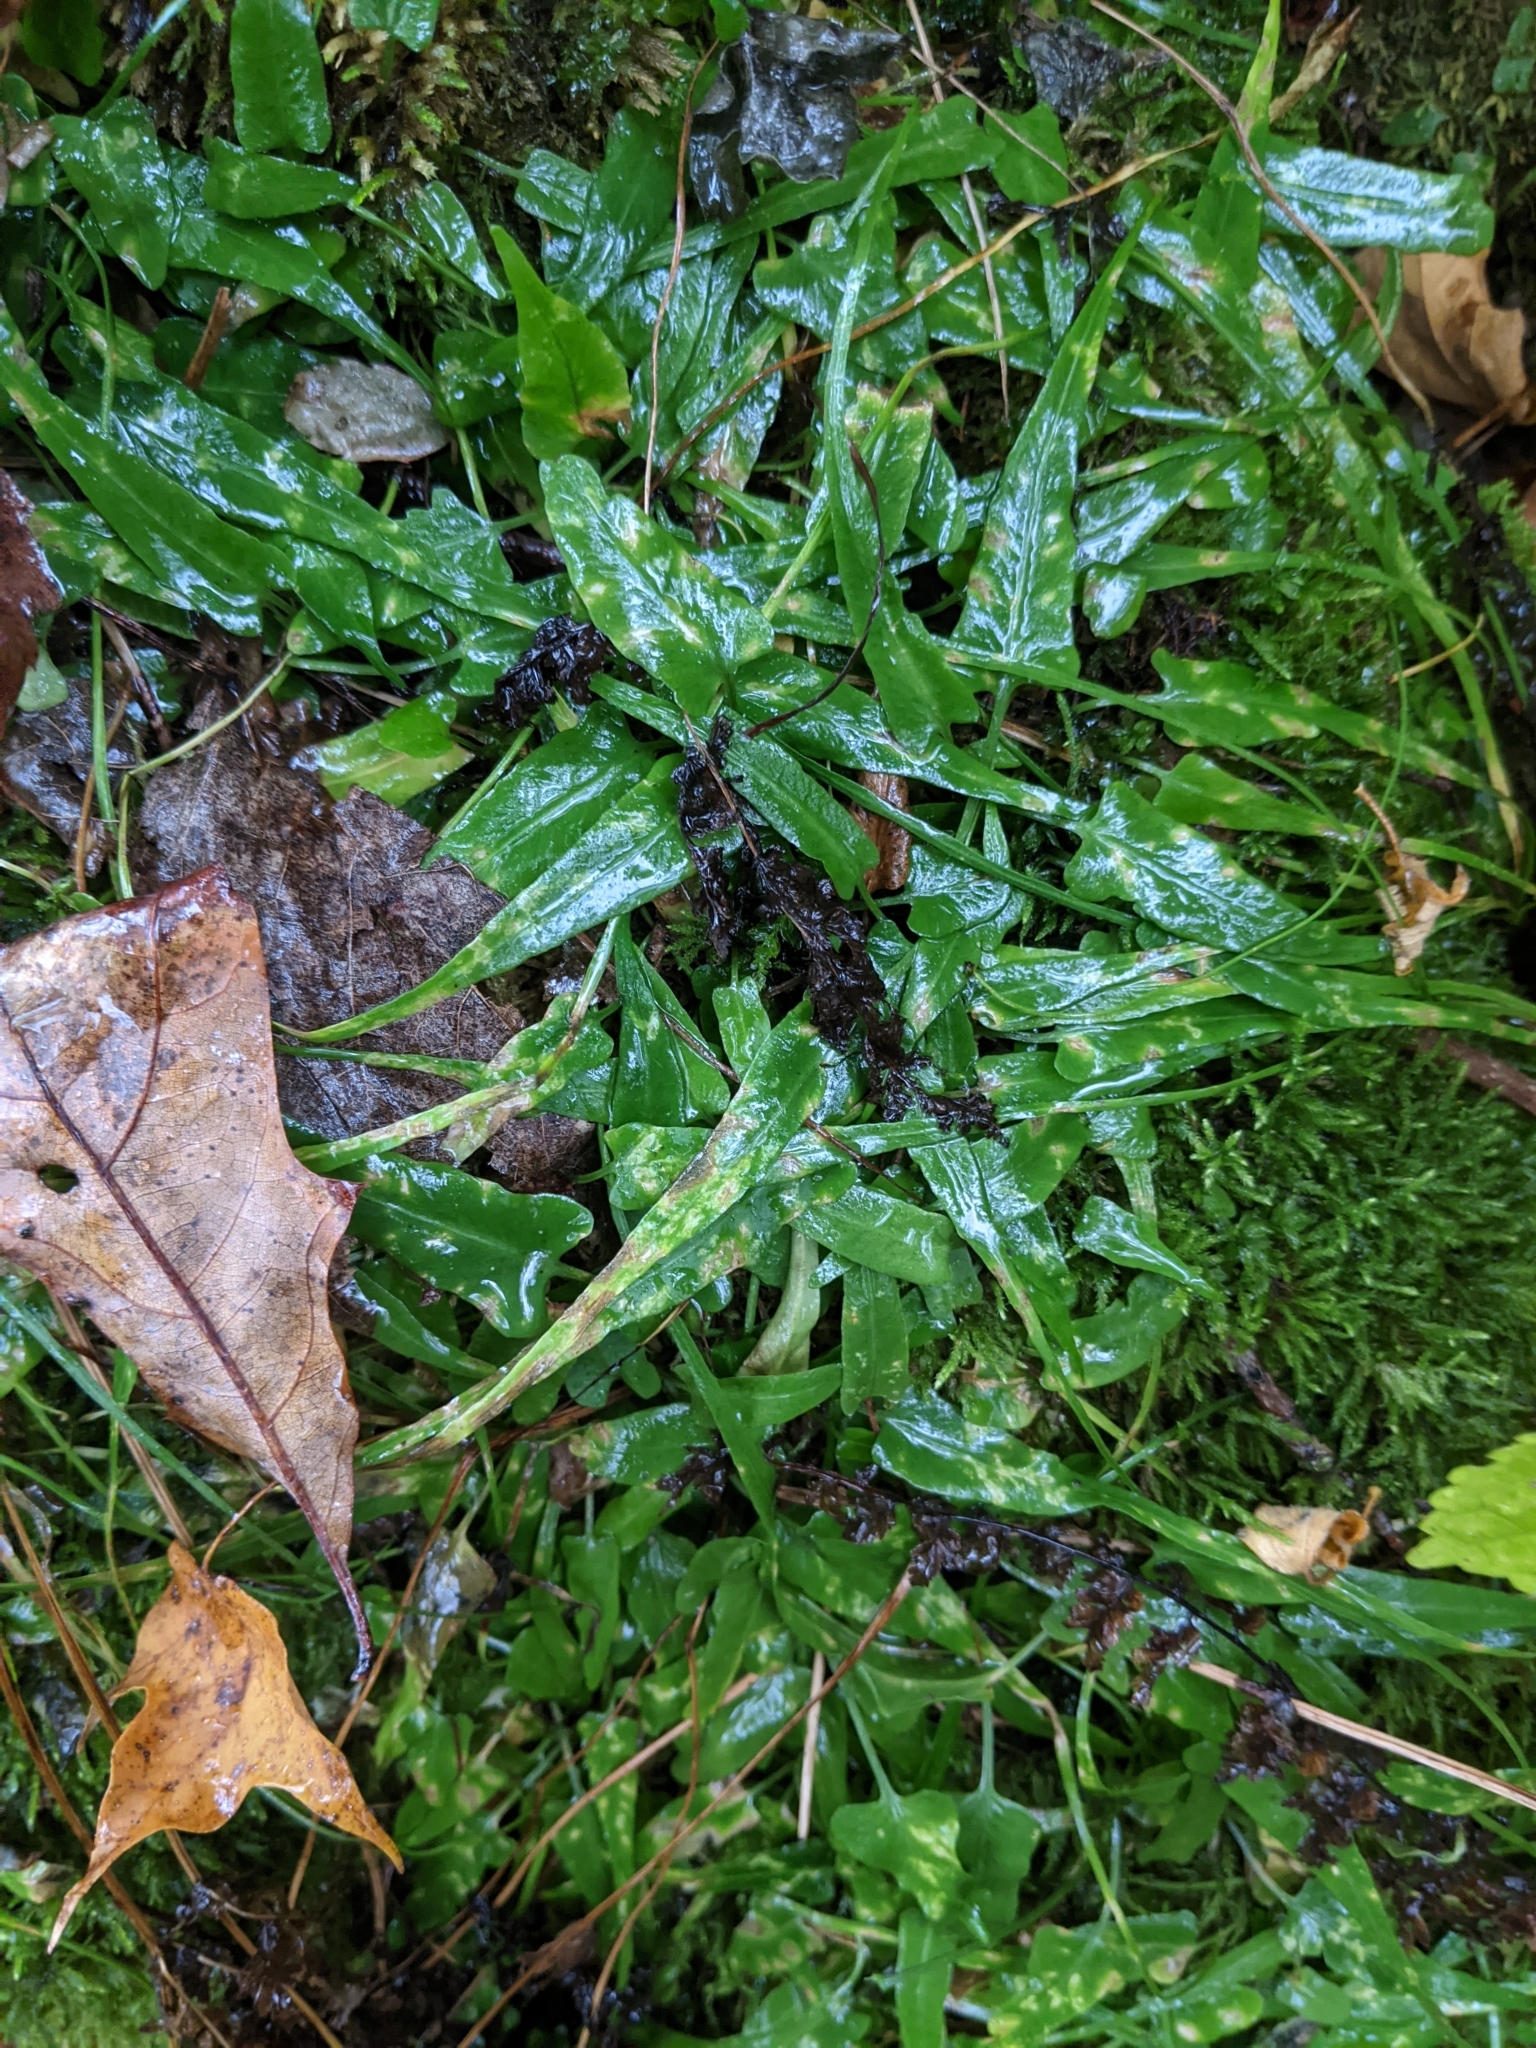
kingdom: Plantae
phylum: Tracheophyta
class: Polypodiopsida
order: Polypodiales
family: Aspleniaceae
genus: Asplenium
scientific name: Asplenium rhizophyllum
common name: Walking fern
